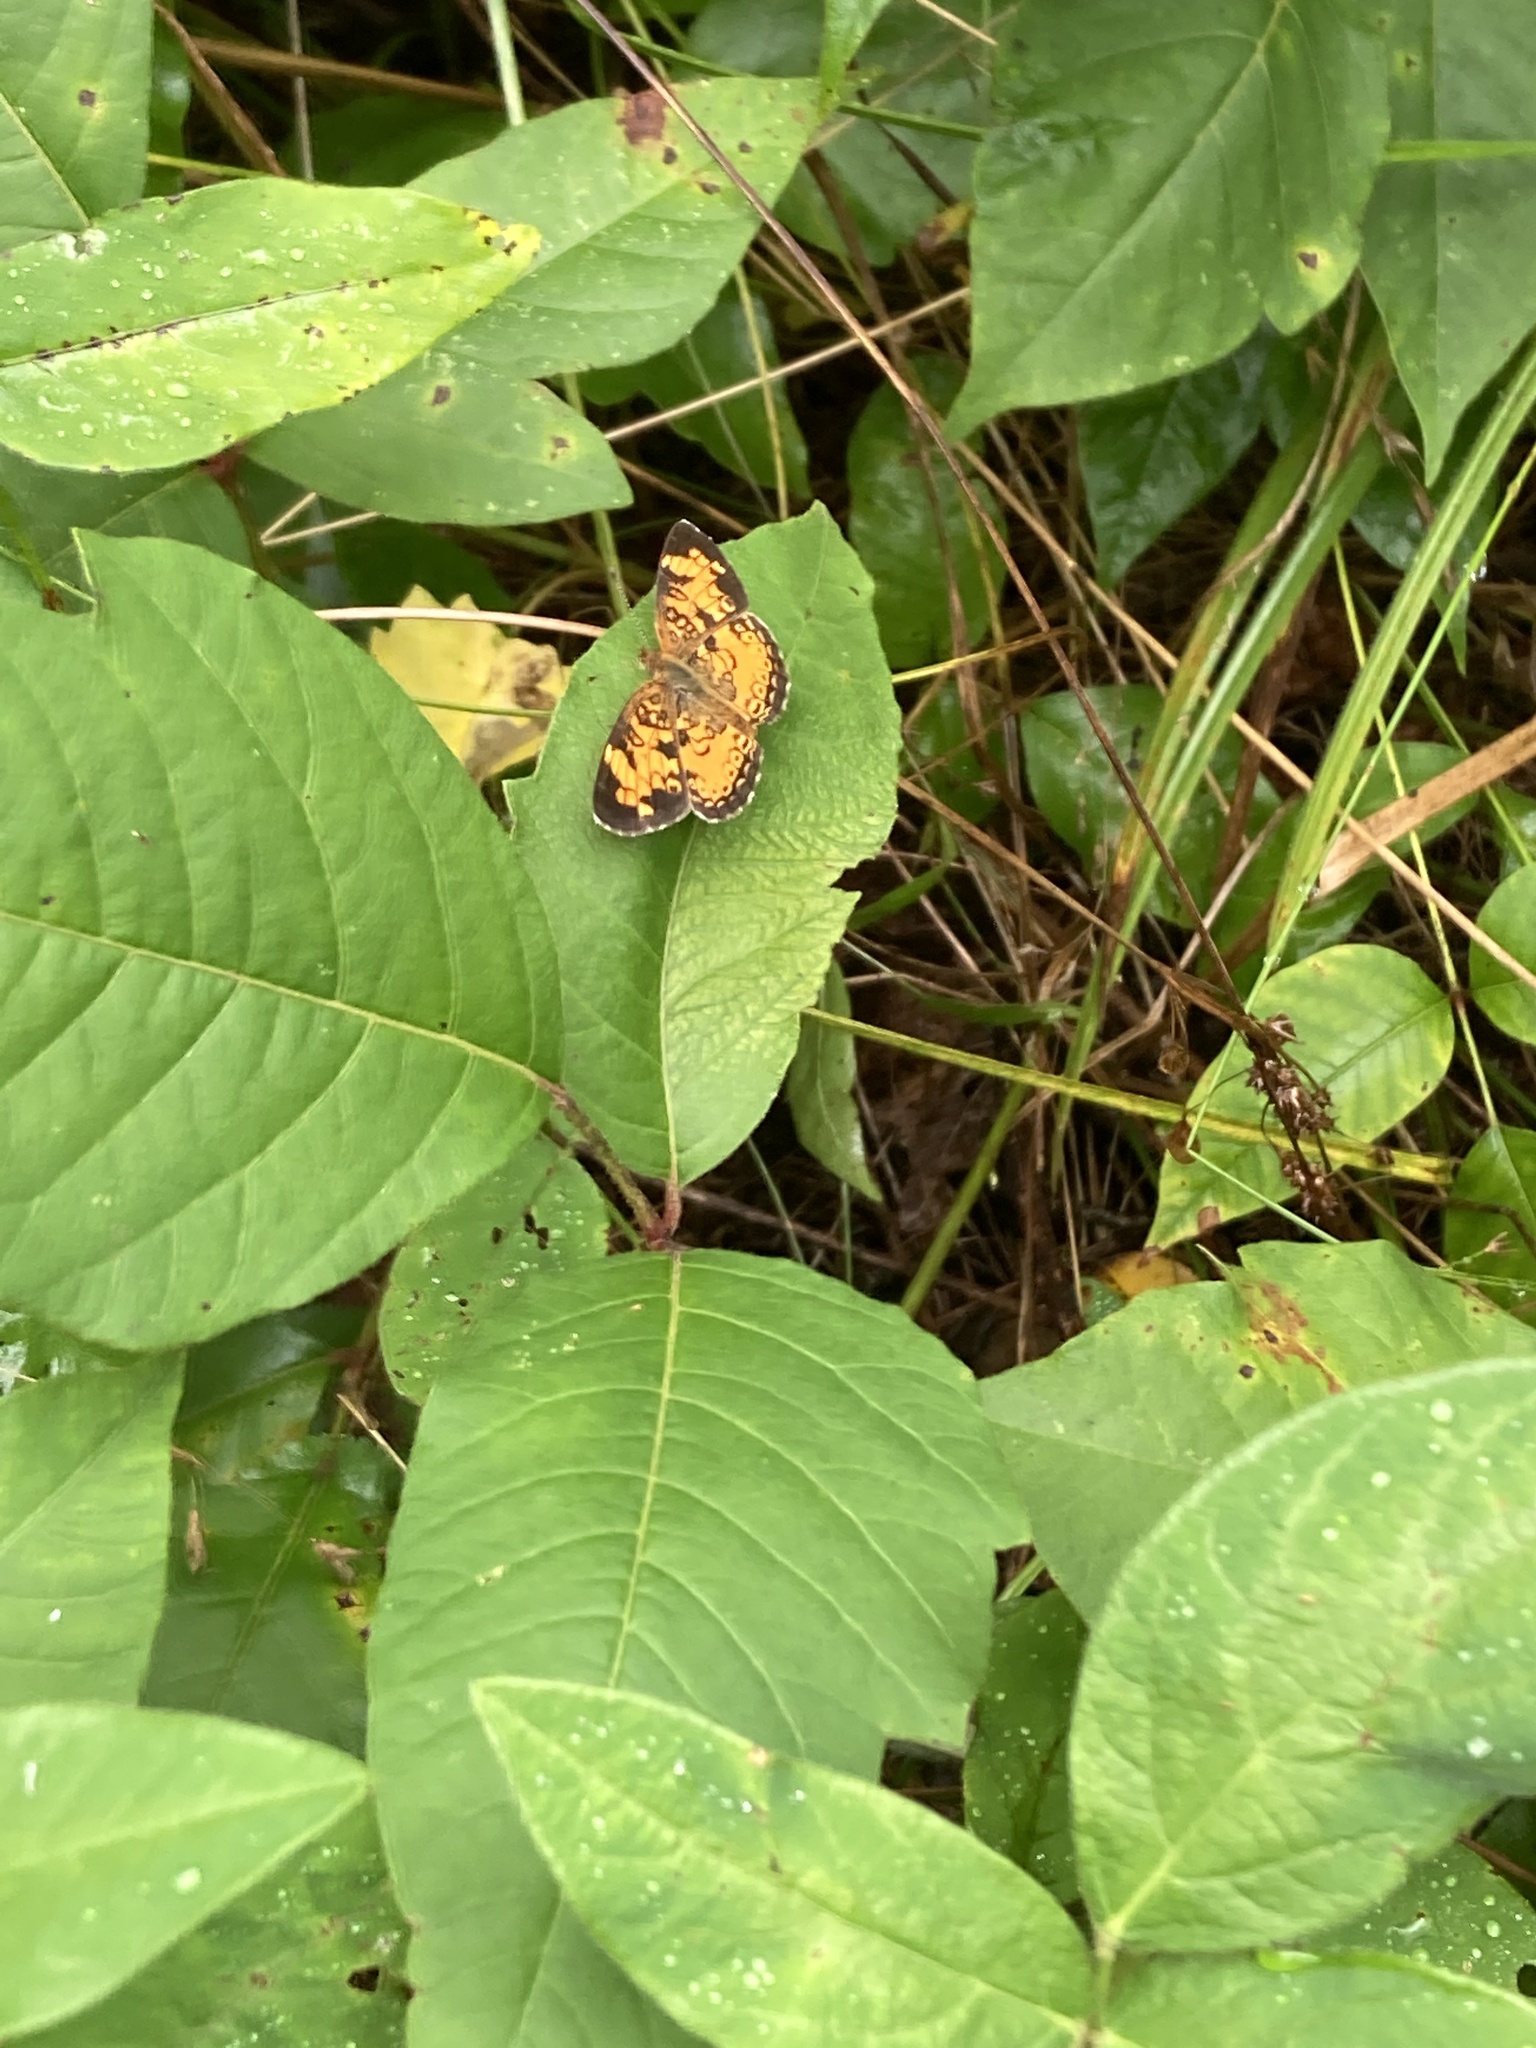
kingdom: Animalia
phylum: Arthropoda
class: Insecta
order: Lepidoptera
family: Nymphalidae
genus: Phyciodes
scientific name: Phyciodes tharos
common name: Pearl crescent
